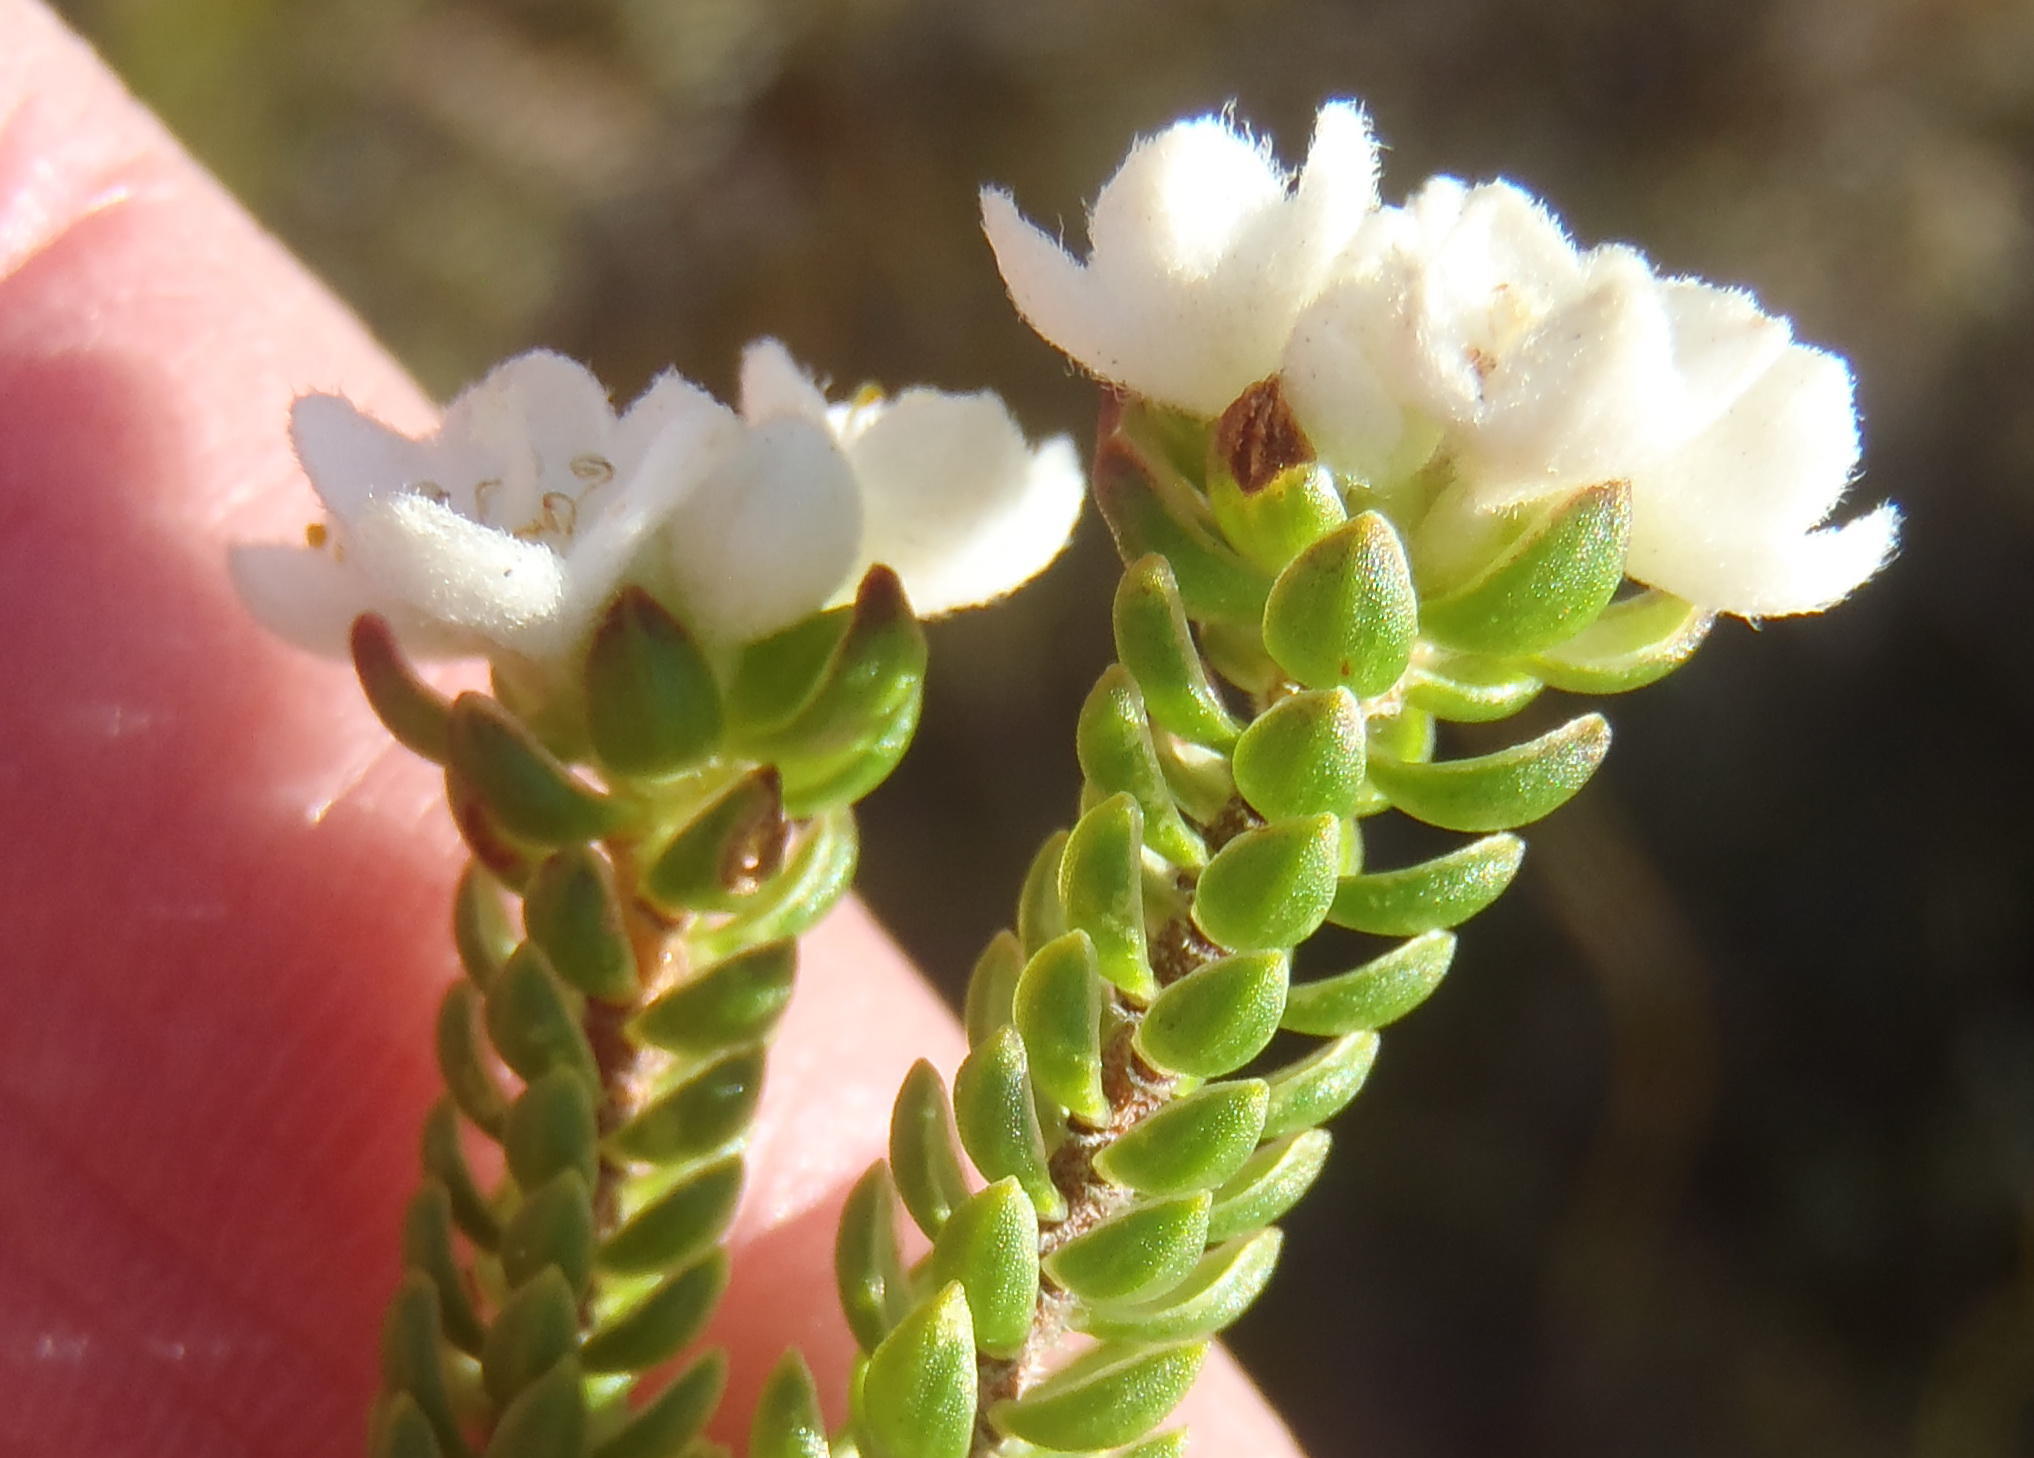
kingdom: Plantae
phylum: Tracheophyta
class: Magnoliopsida
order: Malvales
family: Thymelaeaceae
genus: Lachnaea
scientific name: Lachnaea ericoides
